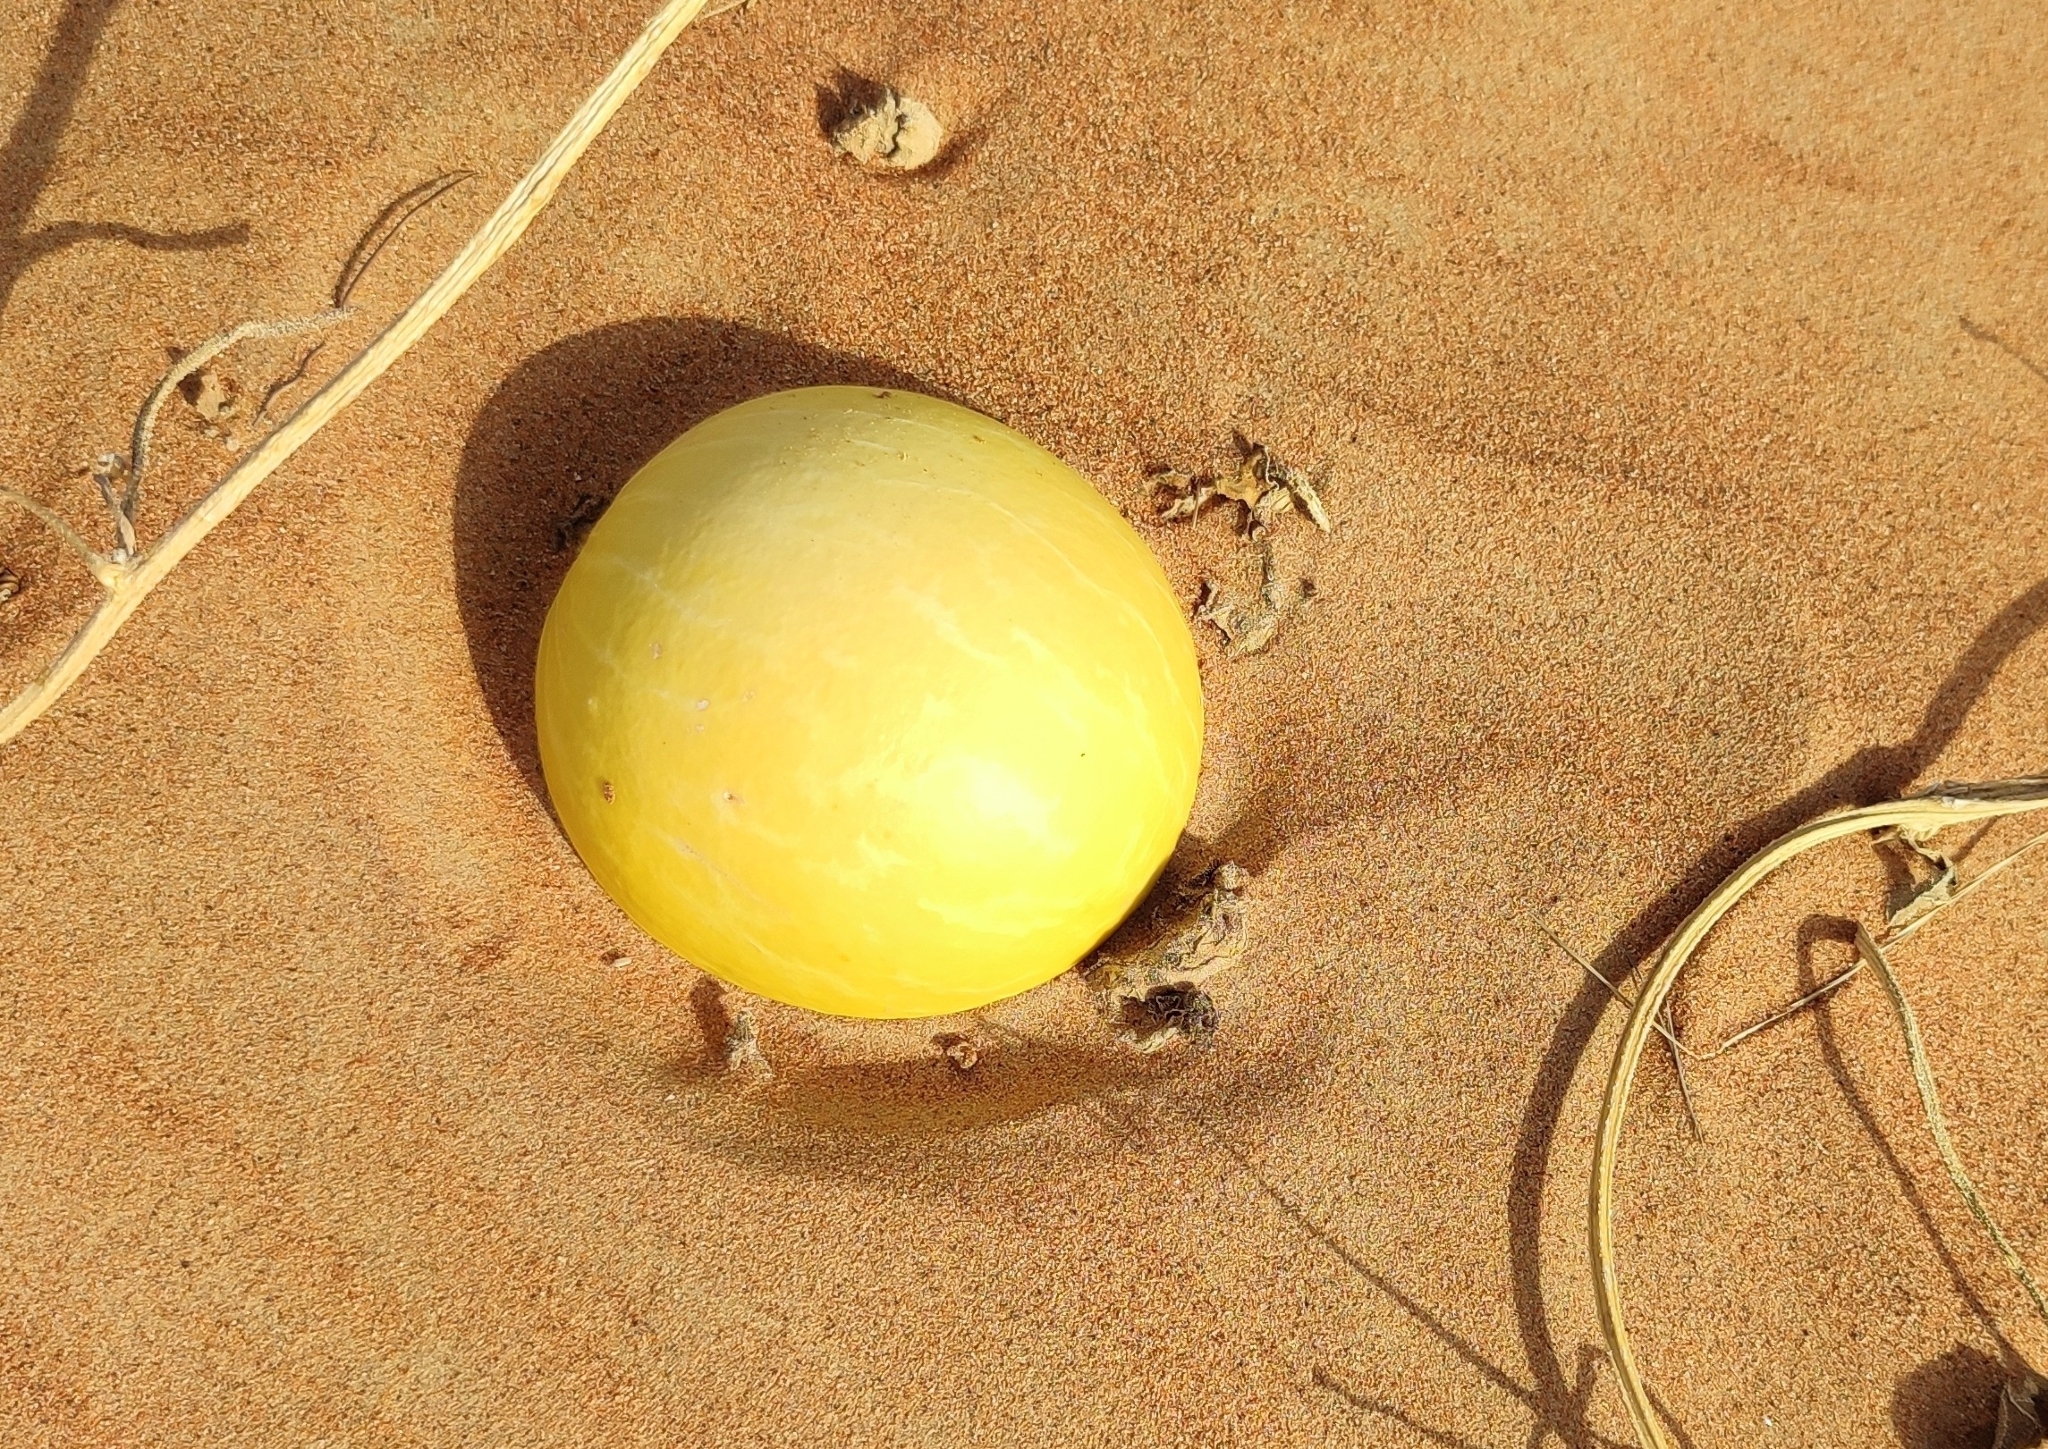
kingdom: Plantae
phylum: Tracheophyta
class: Magnoliopsida
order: Cucurbitales
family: Cucurbitaceae
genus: Citrullus
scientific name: Citrullus colocynthis
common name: Colocynth
